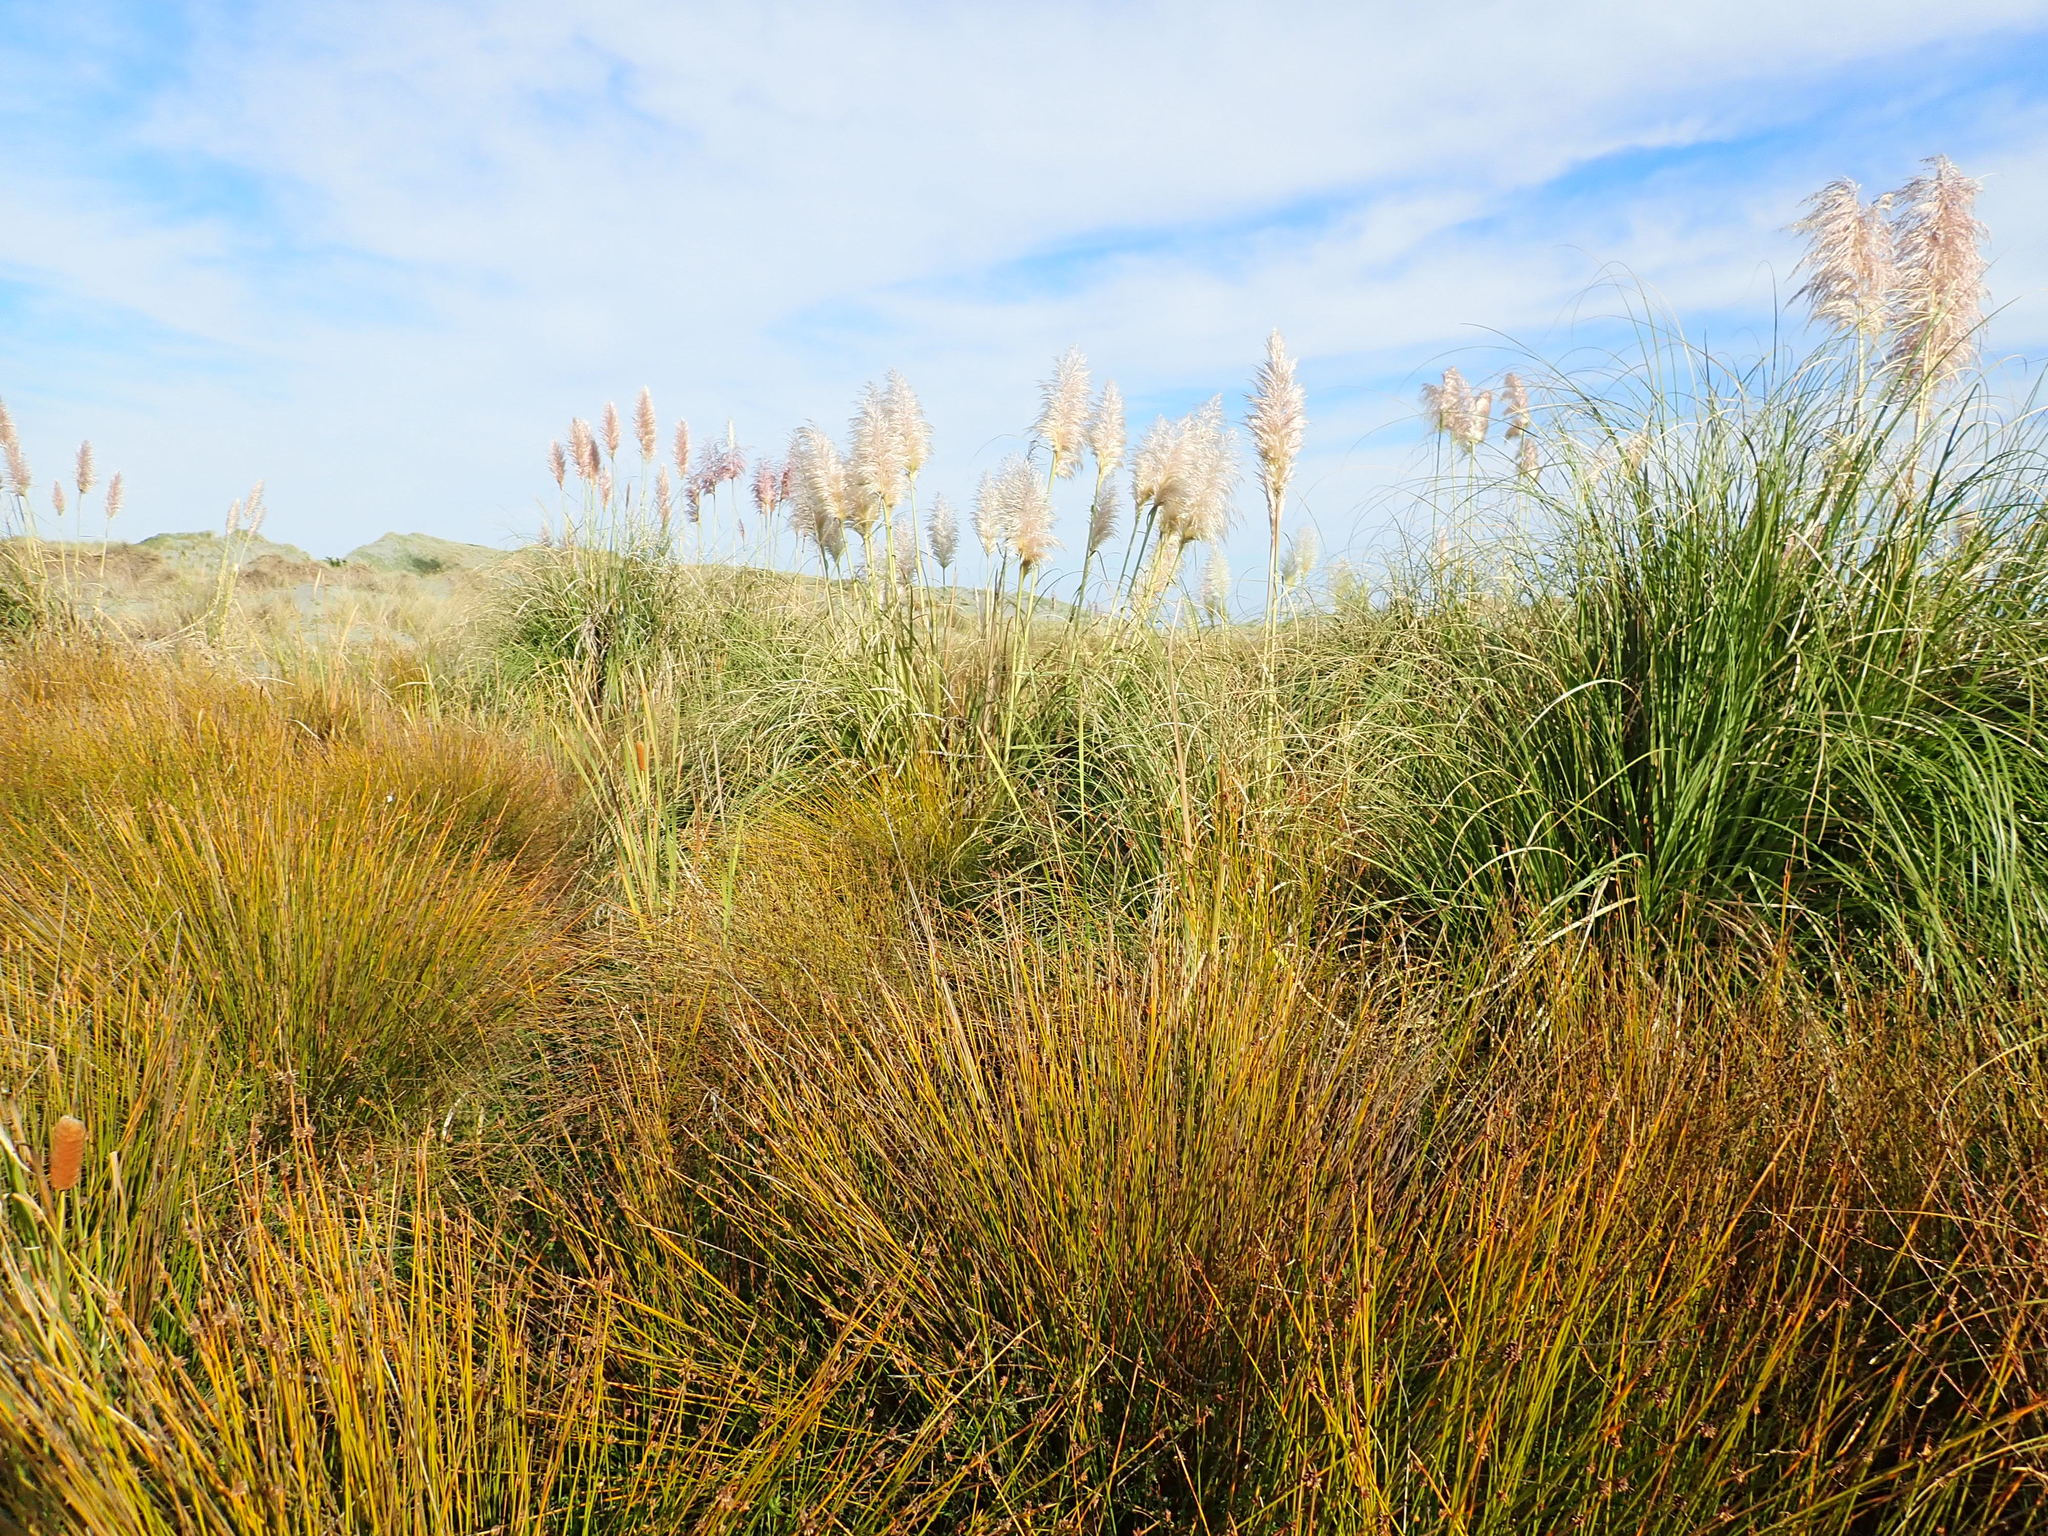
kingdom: Plantae
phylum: Tracheophyta
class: Liliopsida
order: Poales
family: Typhaceae
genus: Typha
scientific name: Typha orientalis
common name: Bullrush
